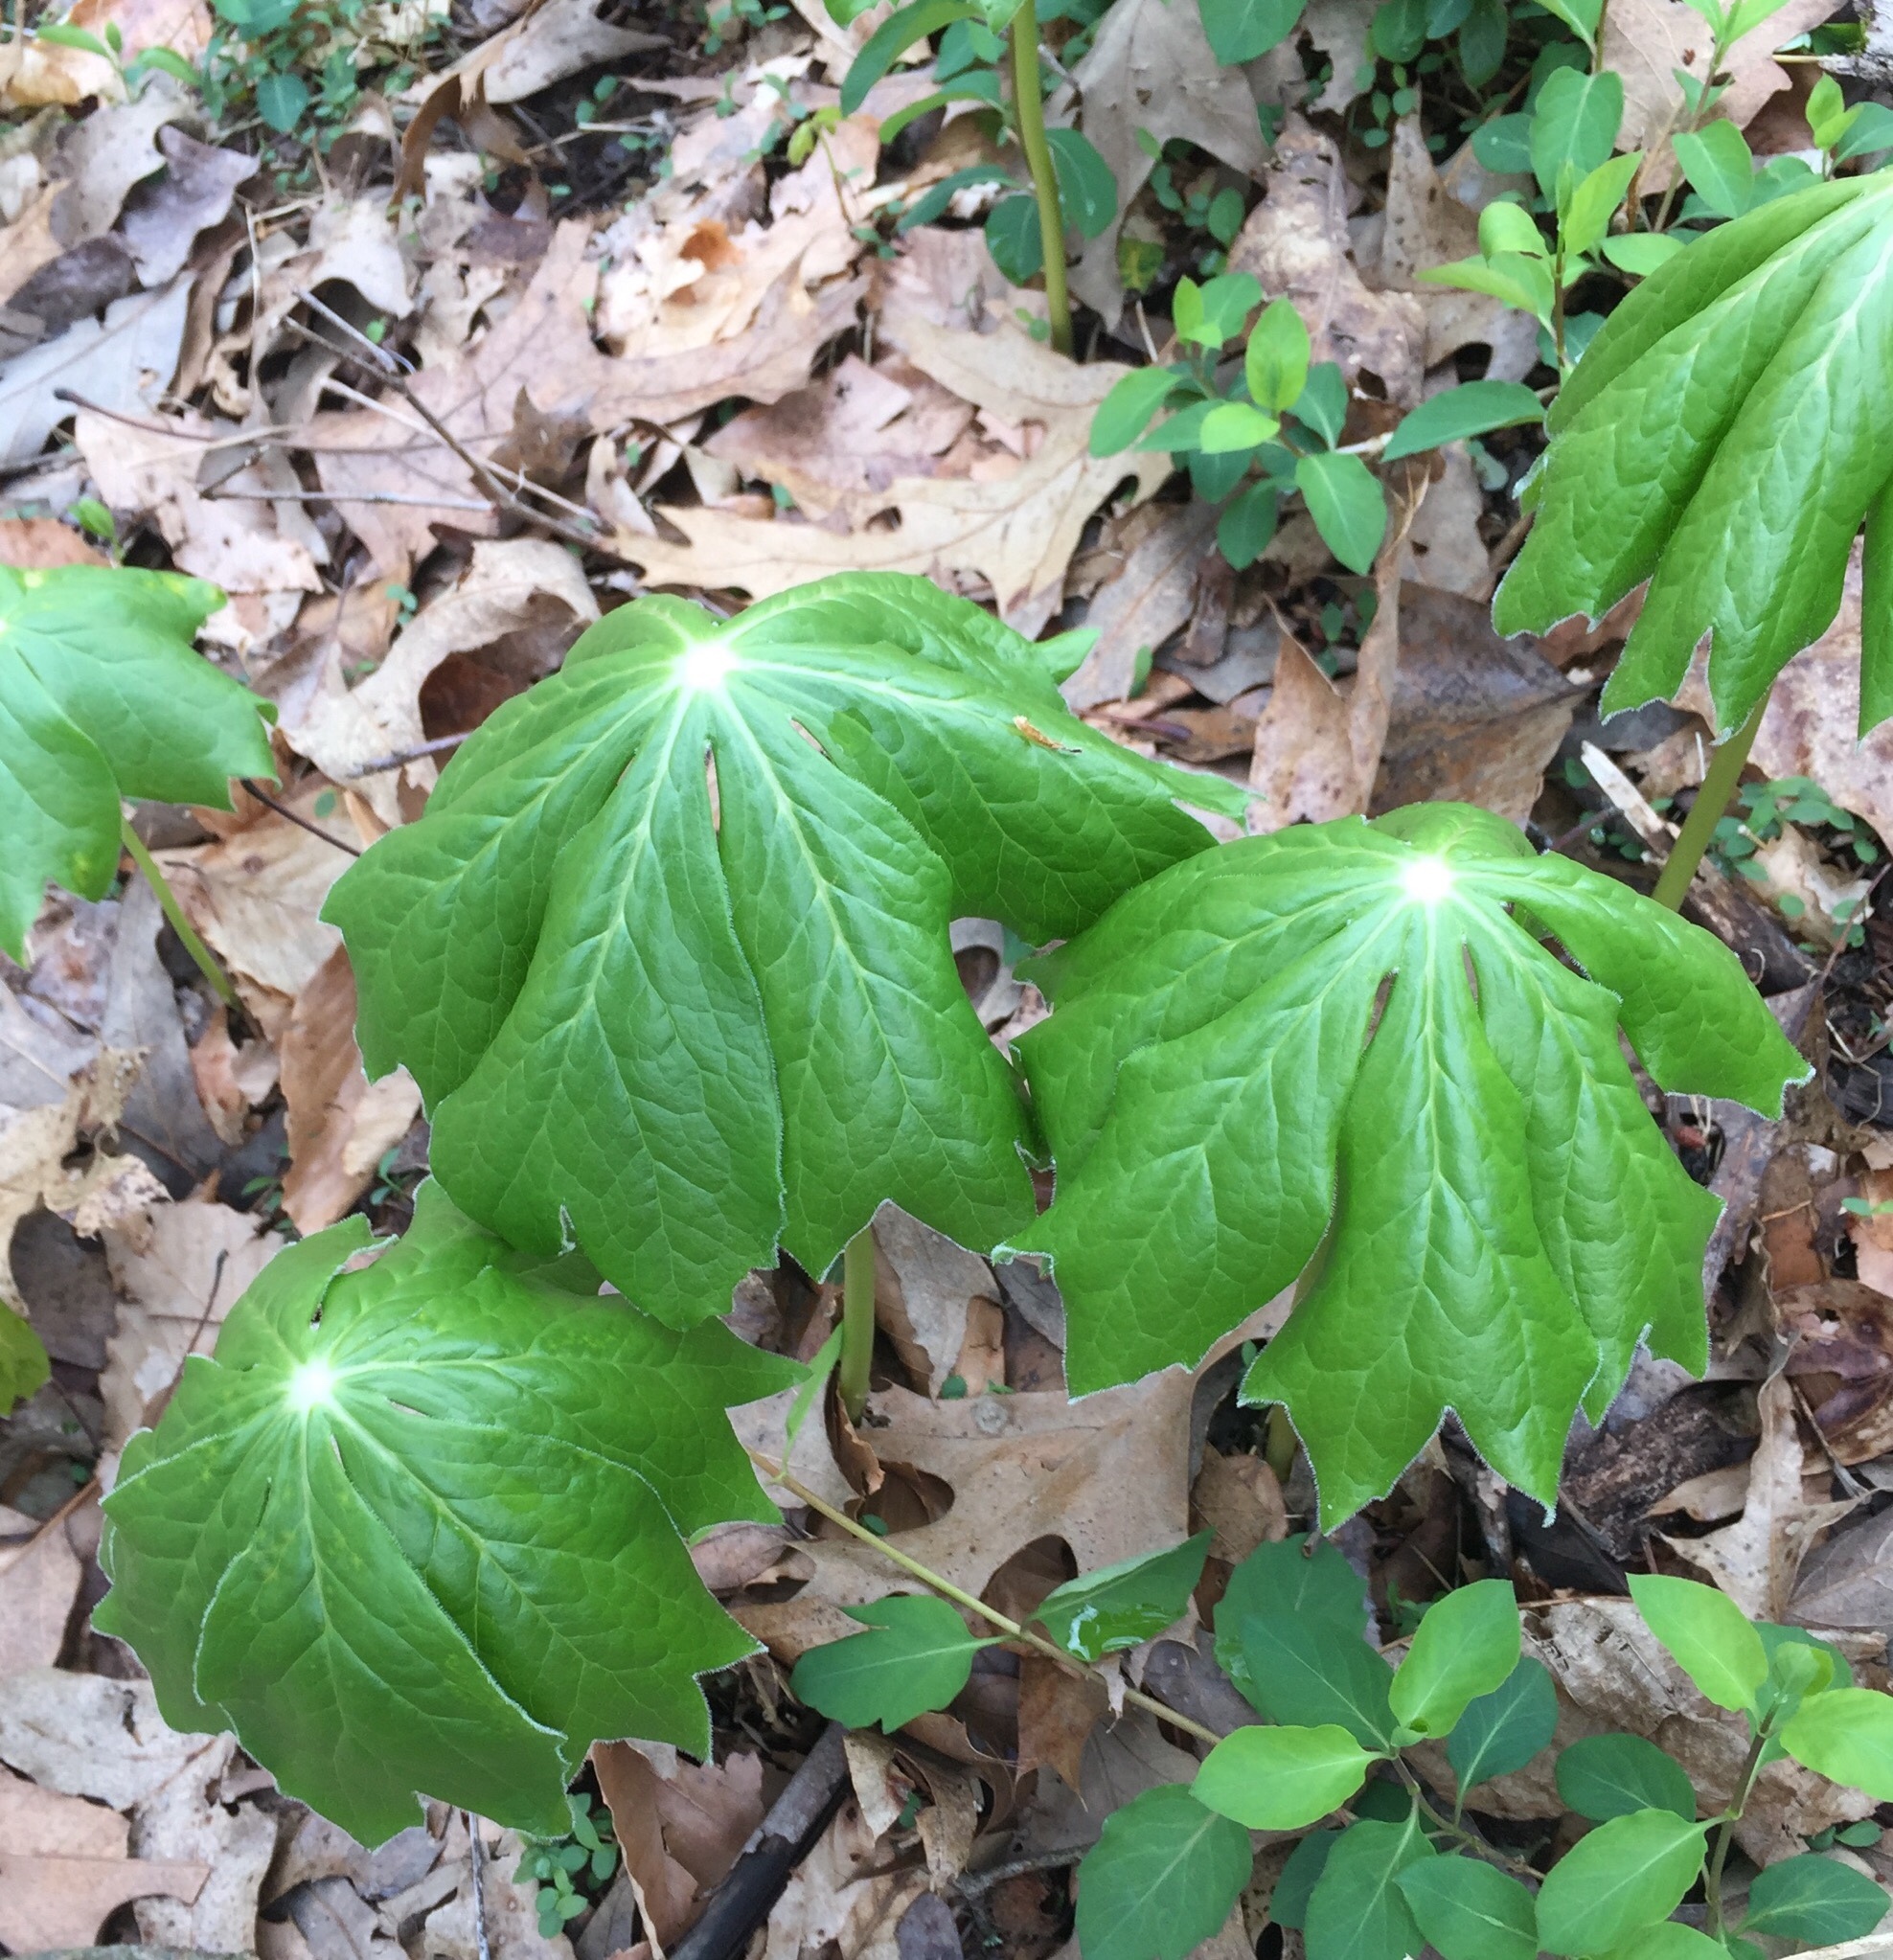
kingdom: Plantae
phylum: Tracheophyta
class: Magnoliopsida
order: Ranunculales
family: Berberidaceae
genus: Podophyllum
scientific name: Podophyllum peltatum
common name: Wild mandrake
